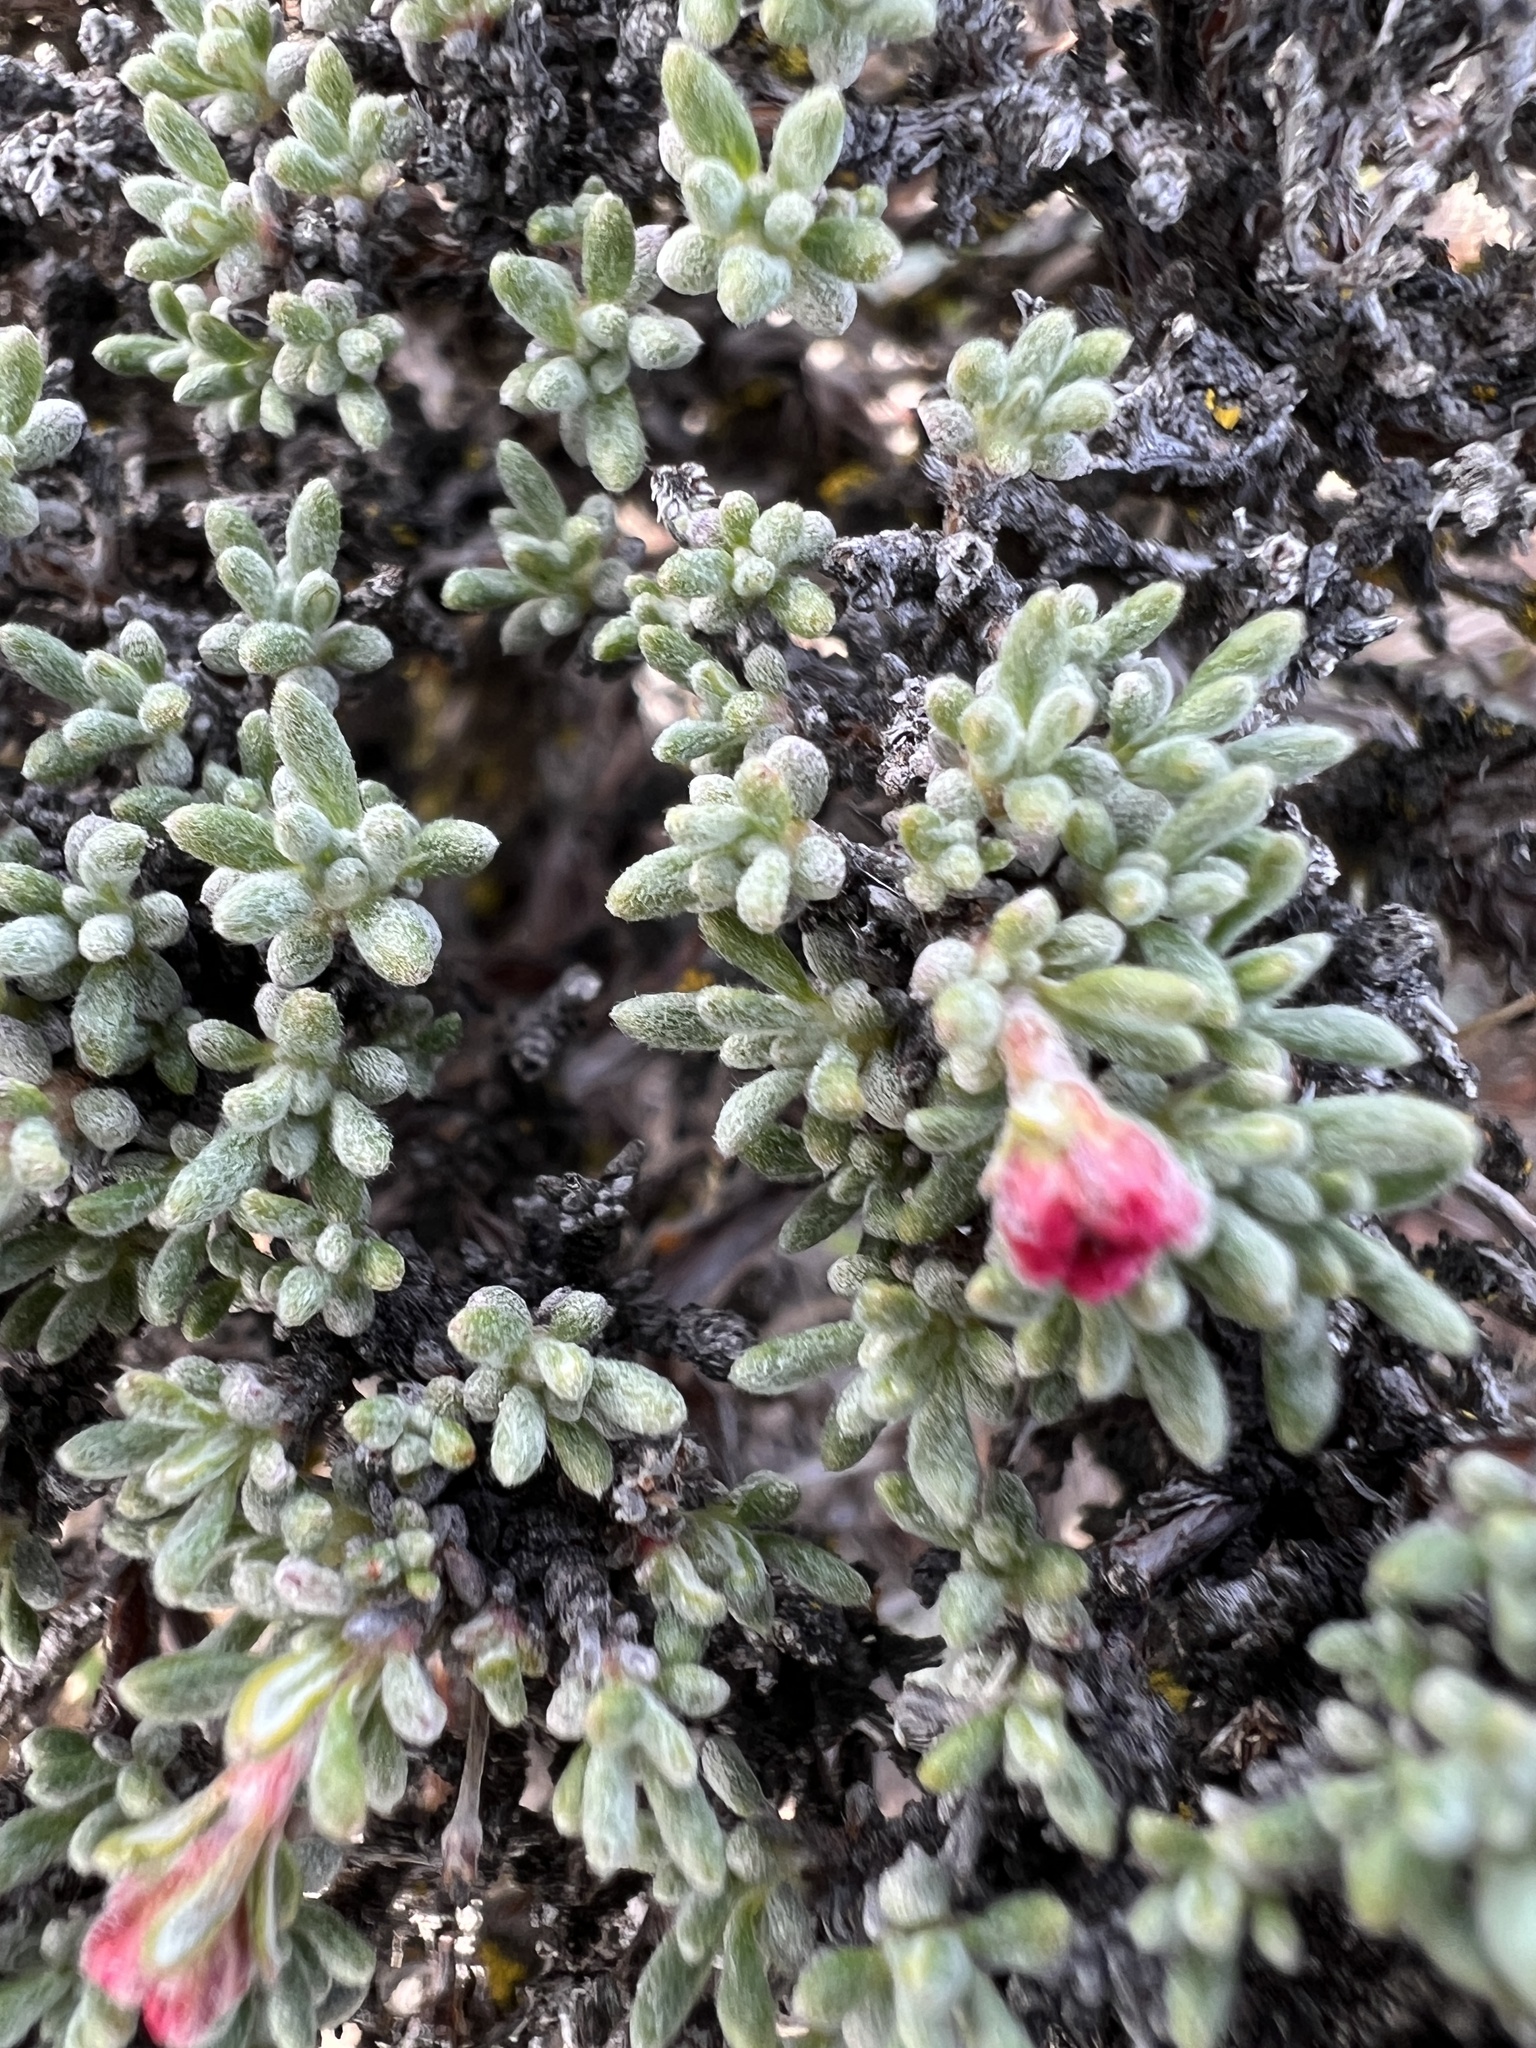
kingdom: Plantae
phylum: Tracheophyta
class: Magnoliopsida
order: Caryophyllales
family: Polygonaceae
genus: Eriogonum
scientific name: Eriogonum thymoides
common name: Thyme-leaf wild buckwheat
